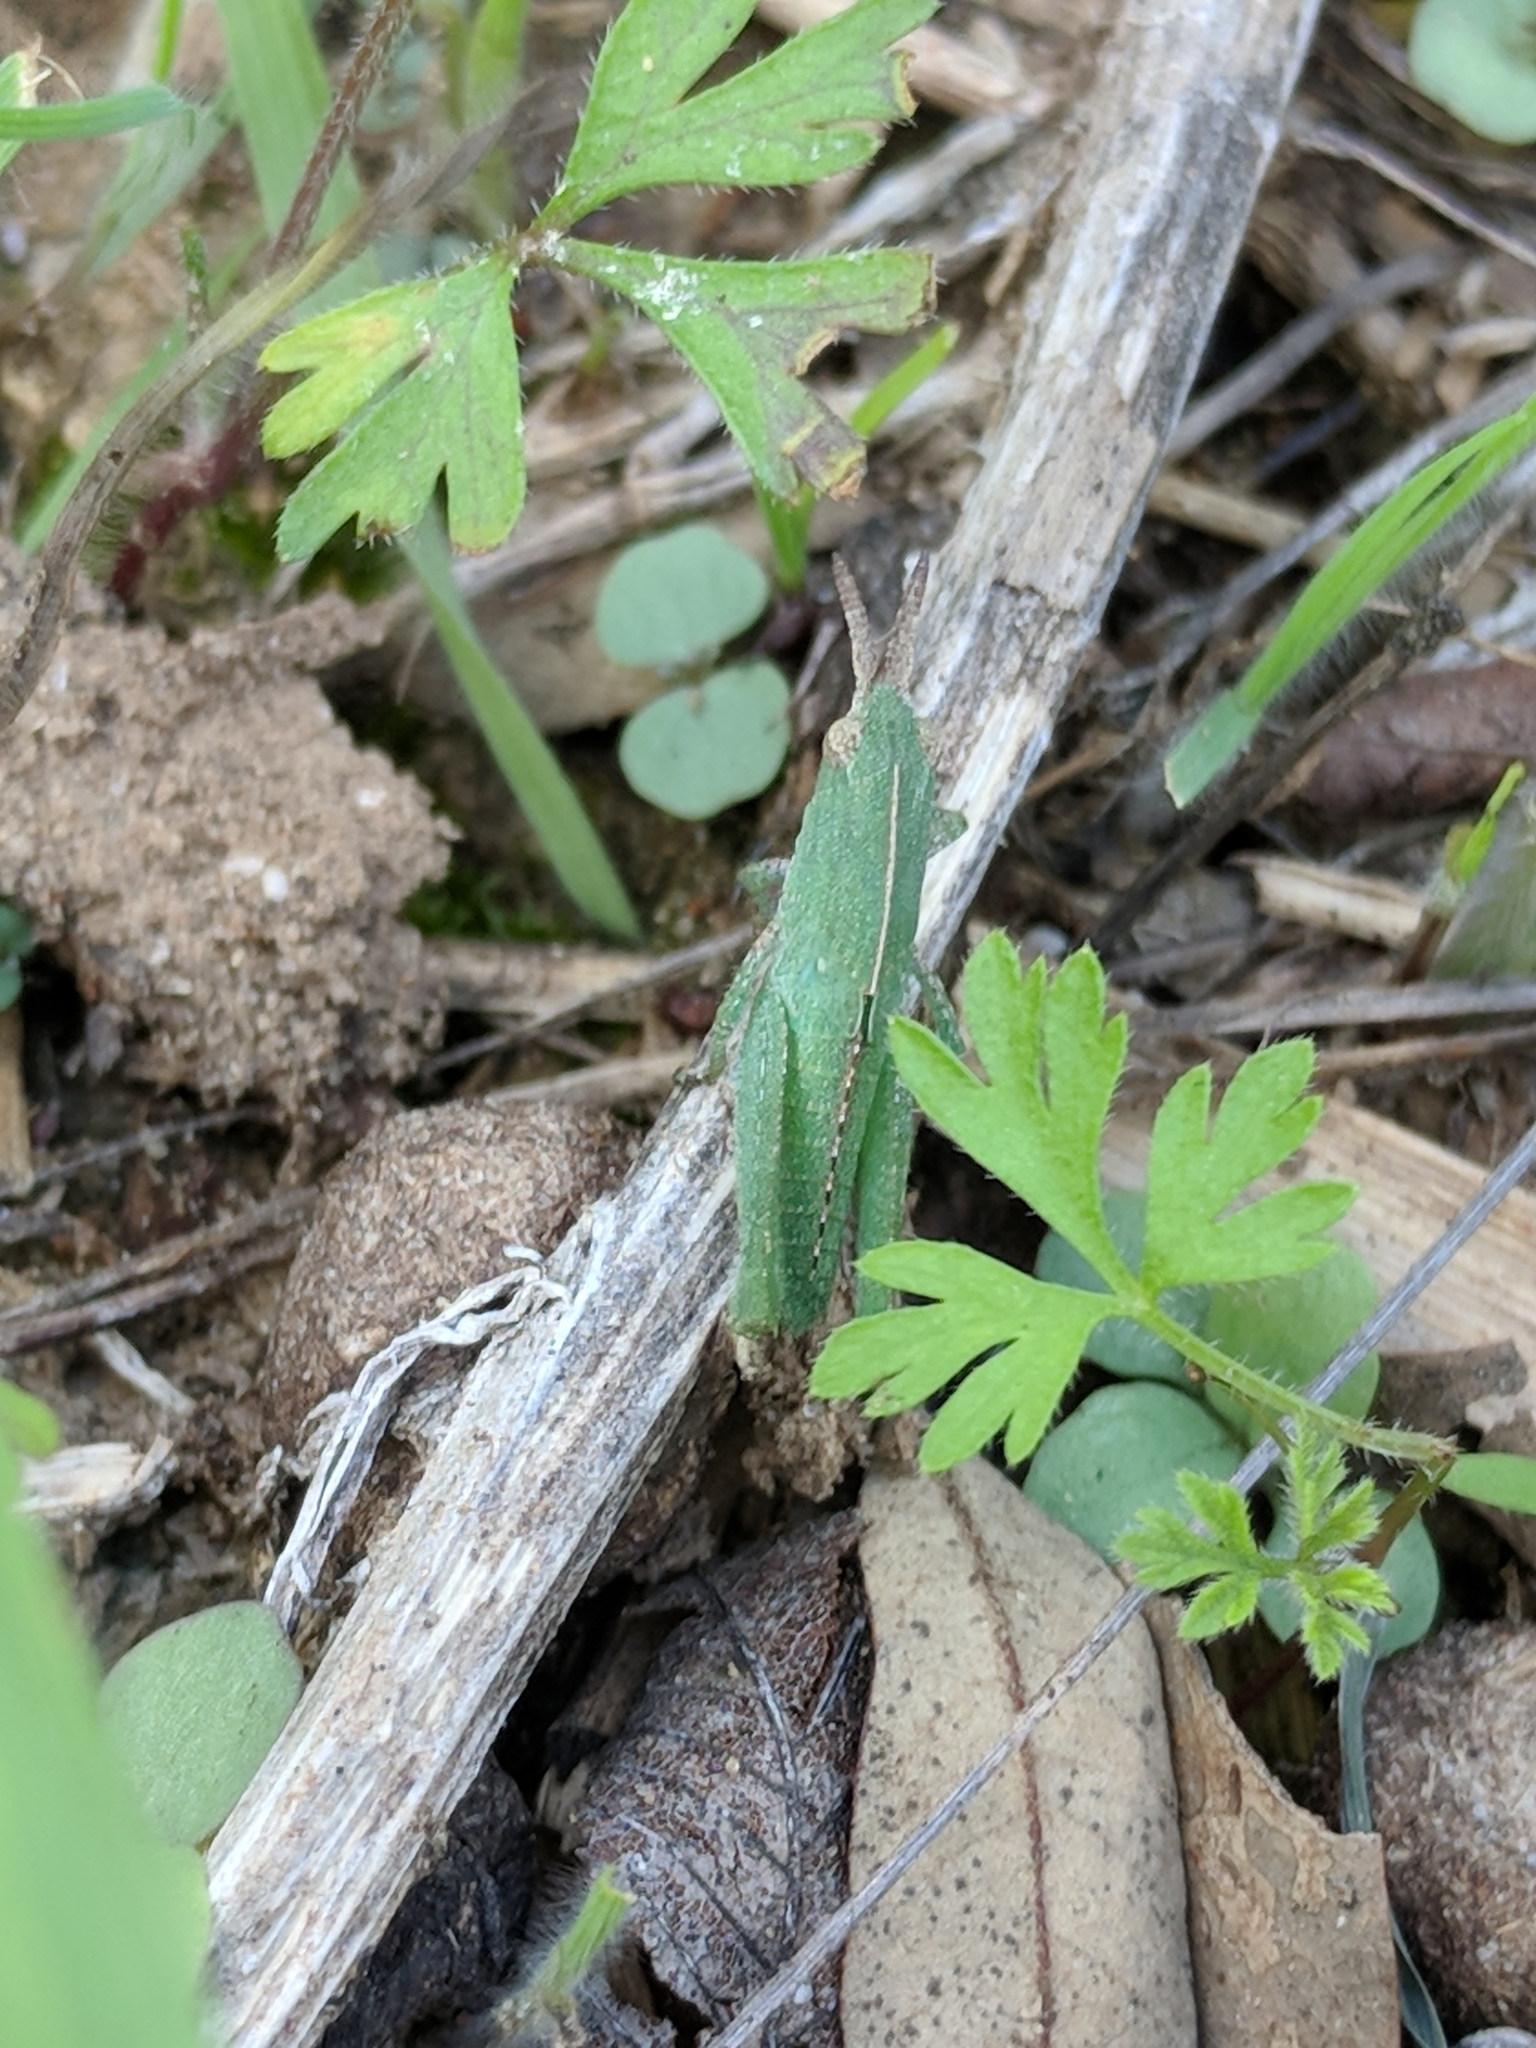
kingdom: Animalia
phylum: Arthropoda
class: Insecta
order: Orthoptera
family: Acrididae
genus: Chortophaga
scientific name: Chortophaga viridifasciata
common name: Green-striped grasshopper
